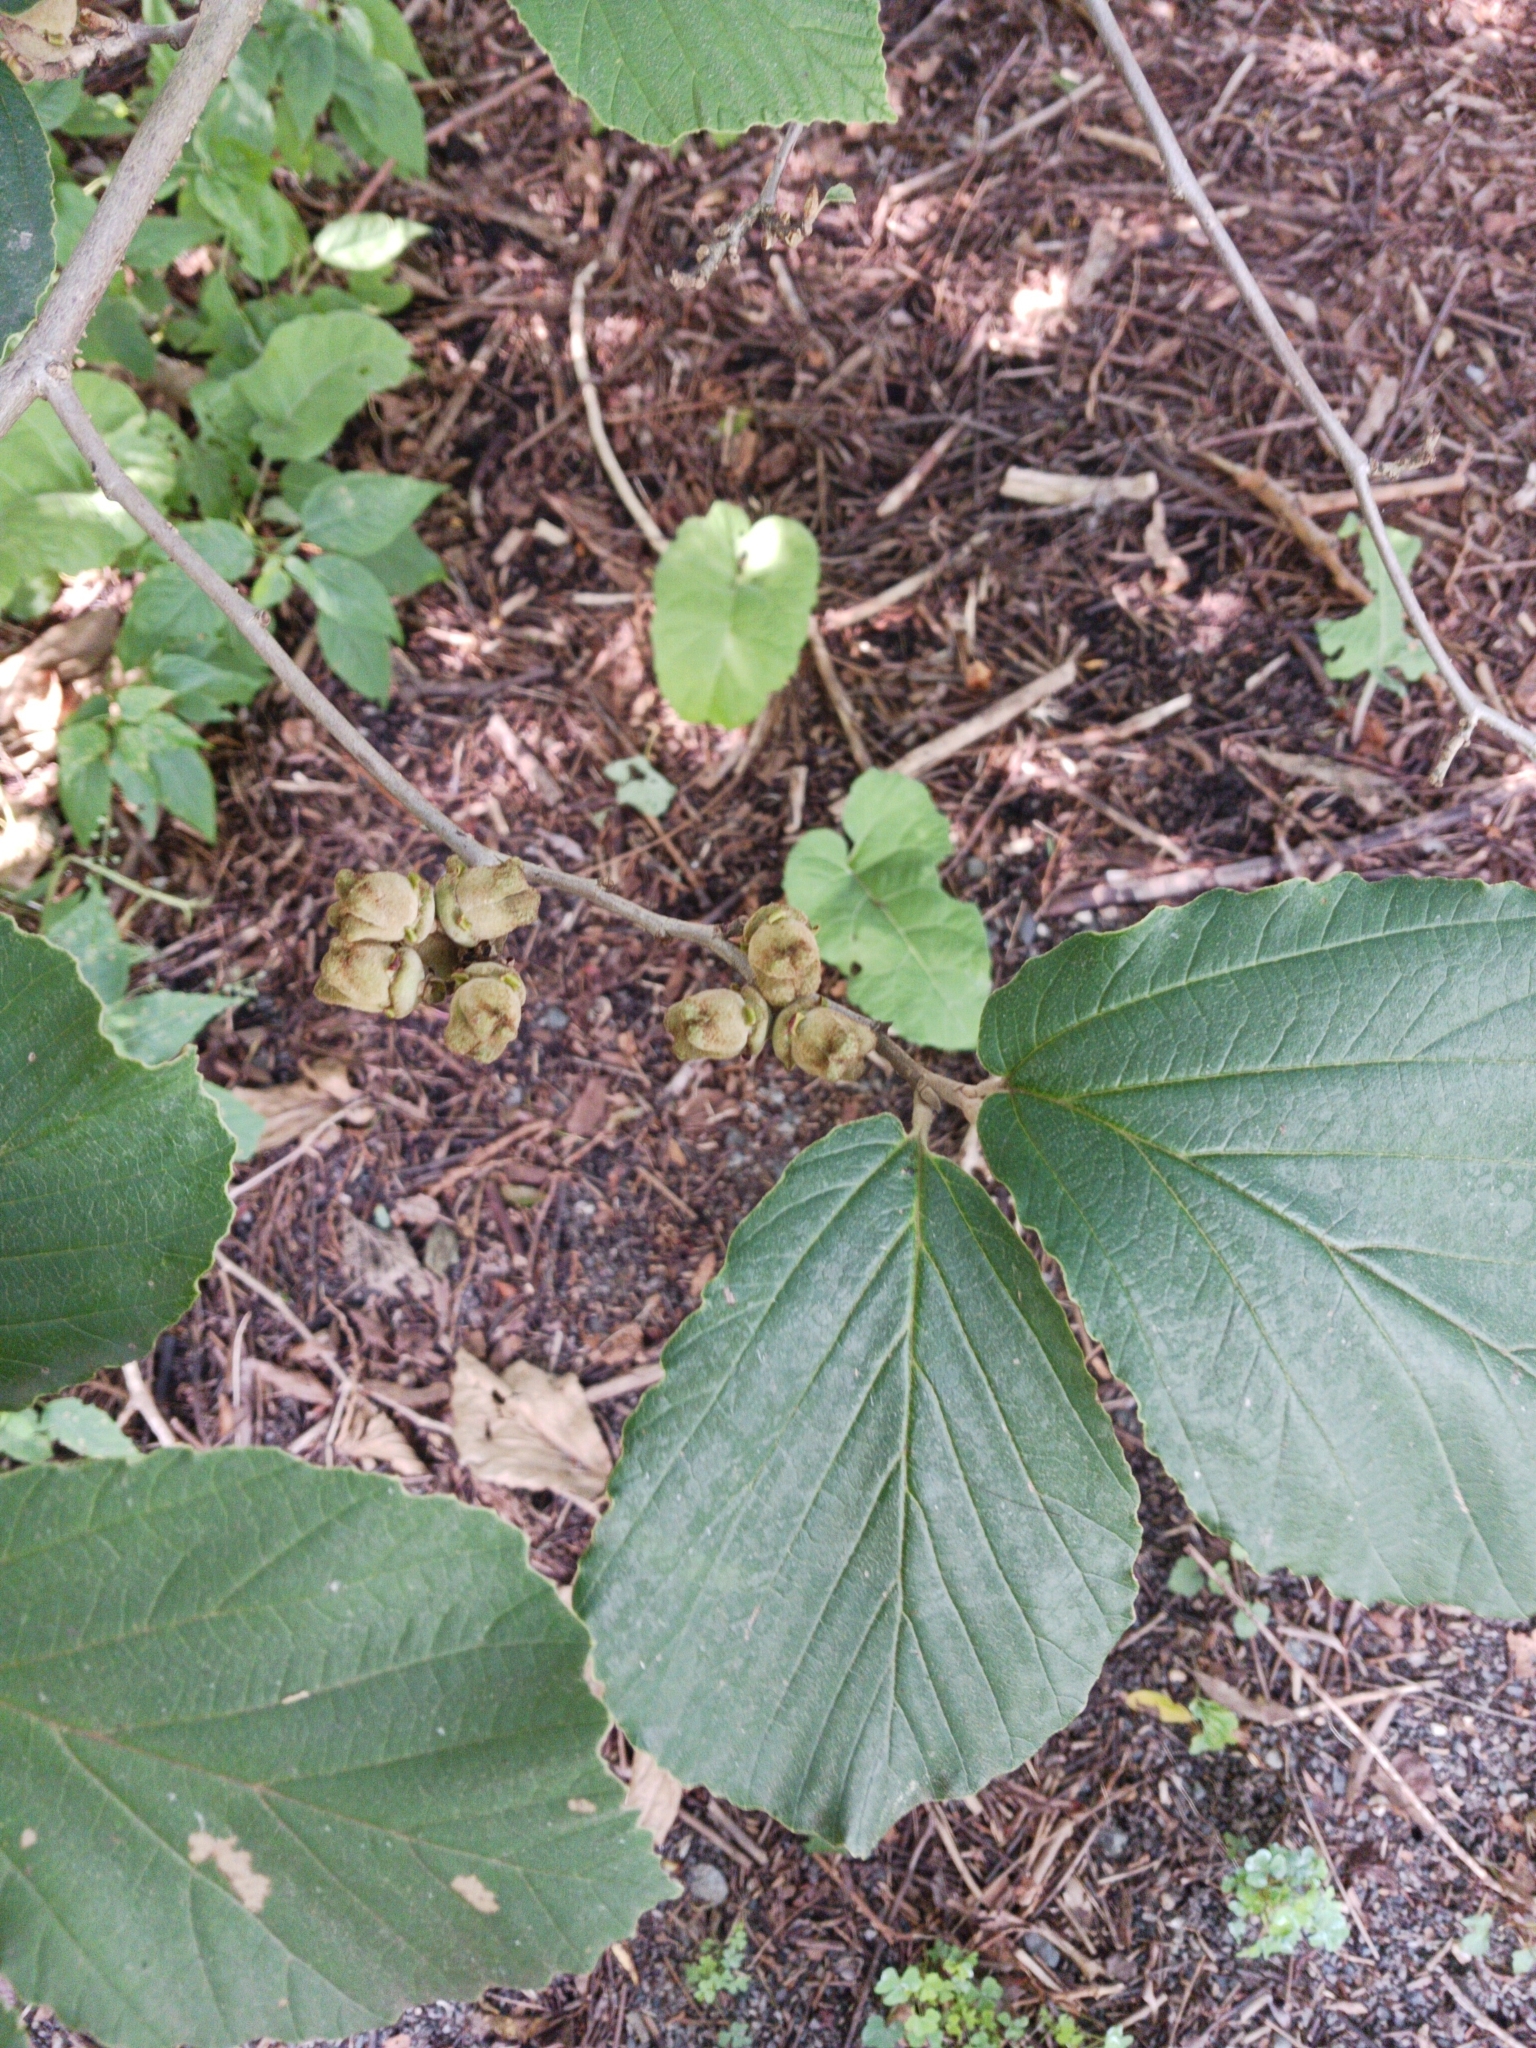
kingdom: Plantae
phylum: Tracheophyta
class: Magnoliopsida
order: Saxifragales
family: Hamamelidaceae
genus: Hamamelis
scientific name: Hamamelis virginiana
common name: Witch-hazel
